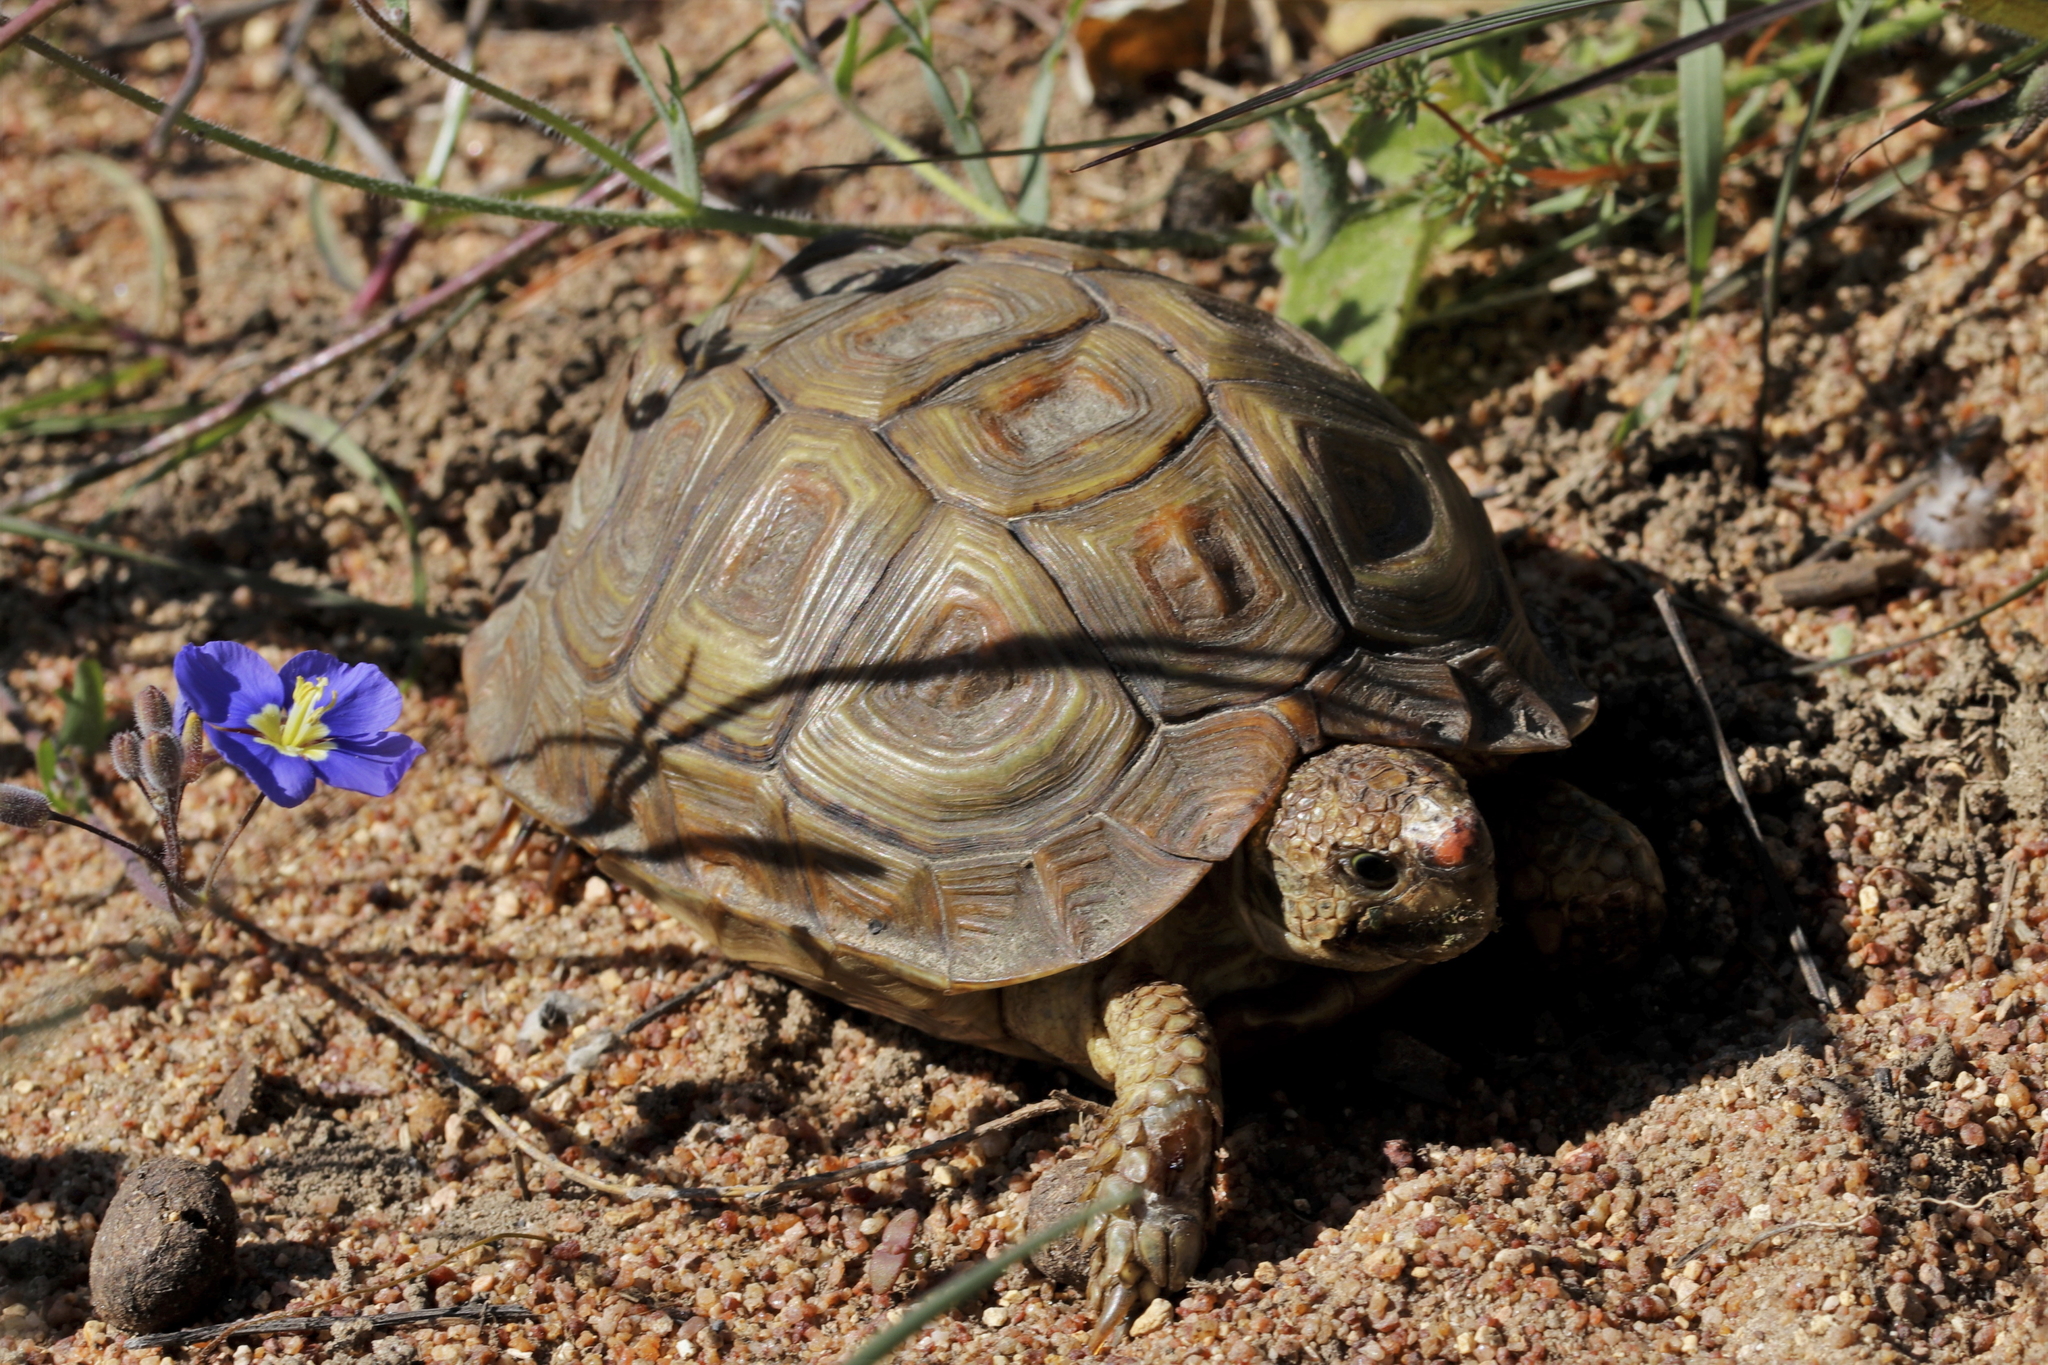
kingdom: Animalia
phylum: Chordata
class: Testudines
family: Testudinidae
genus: Homopus
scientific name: Homopus areolatus
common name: Parrot-beaked tortoise
